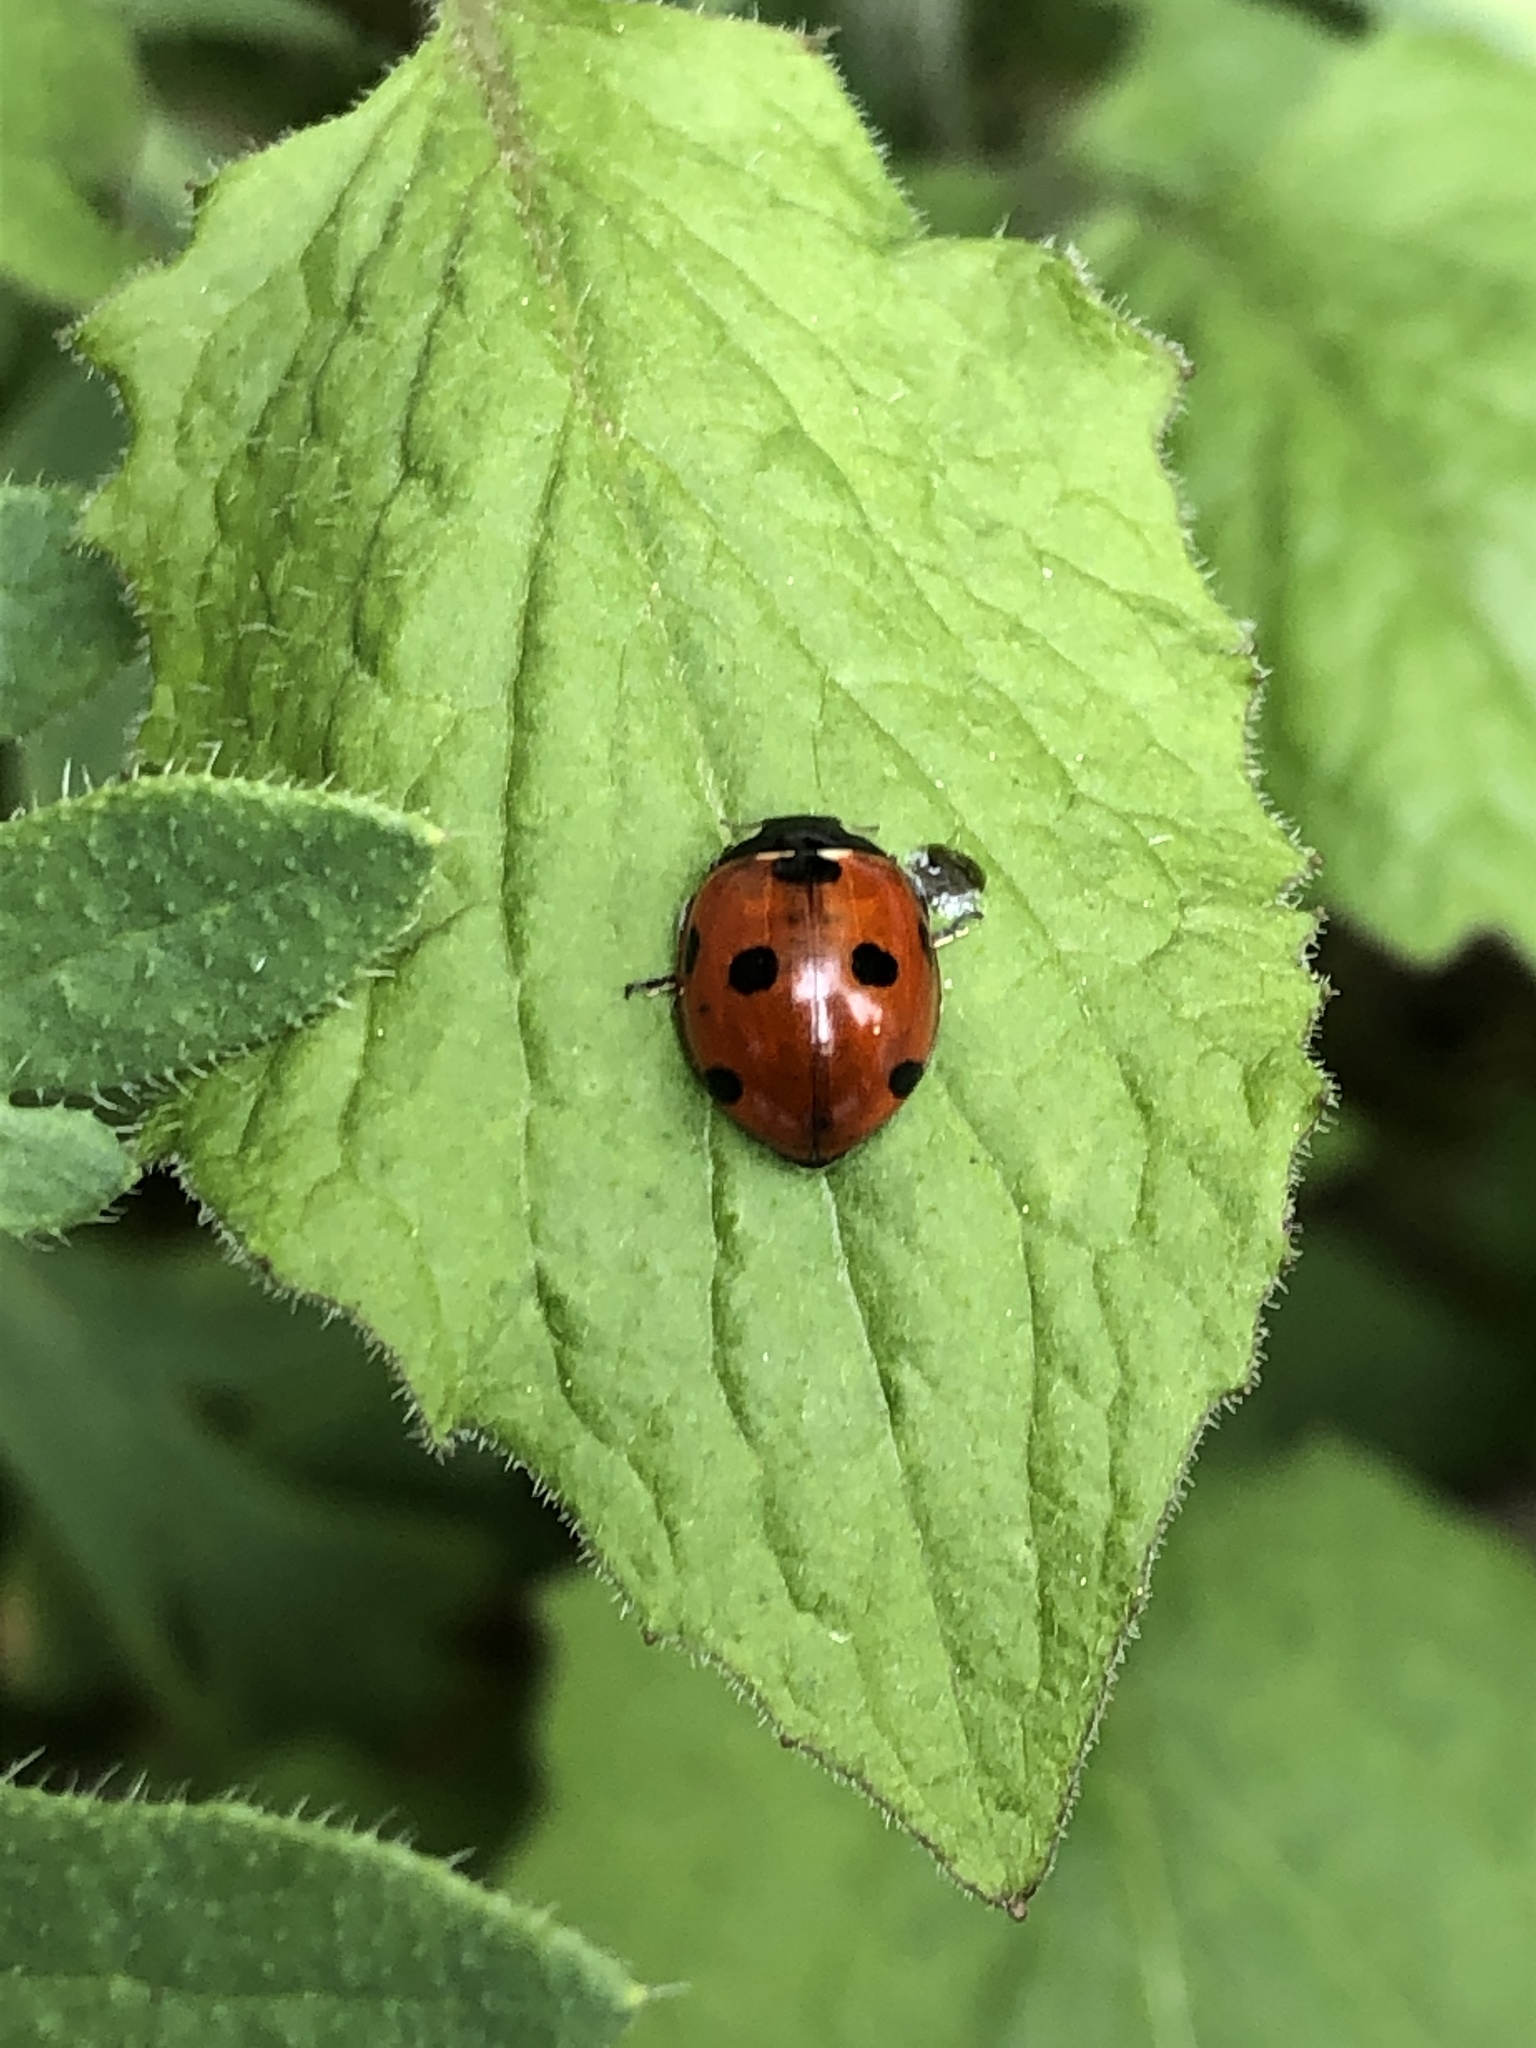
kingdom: Animalia
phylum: Arthropoda
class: Insecta
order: Coleoptera
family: Coccinellidae
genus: Coccinella
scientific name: Coccinella septempunctata
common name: Sevenspotted lady beetle
